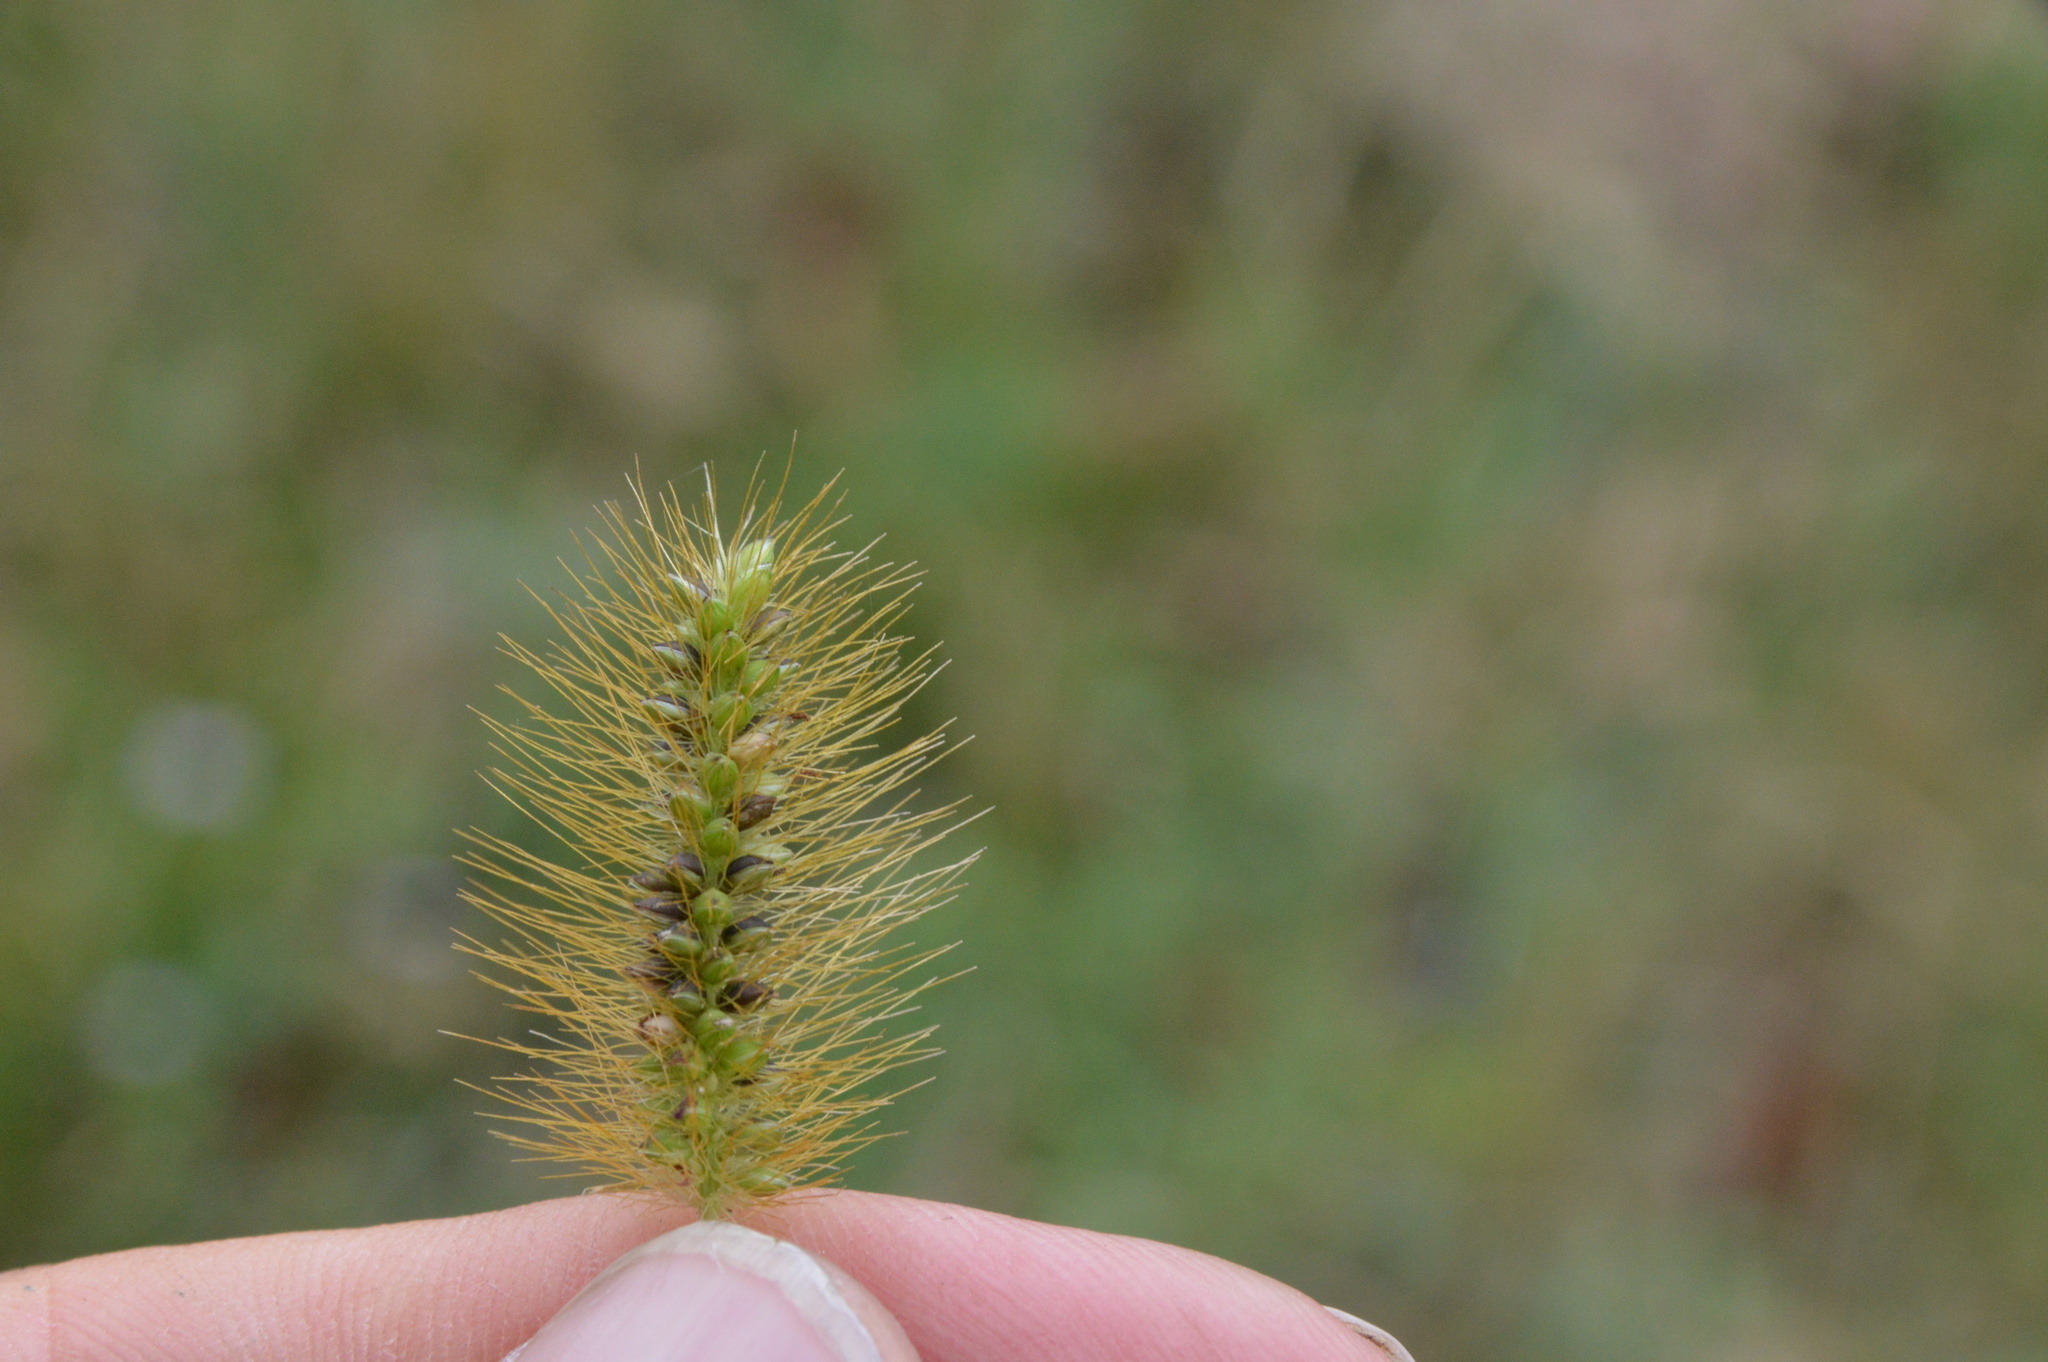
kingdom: Plantae
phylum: Tracheophyta
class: Liliopsida
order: Poales
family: Poaceae
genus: Setaria
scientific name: Setaria parviflora
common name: Knotroot bristle-grass
